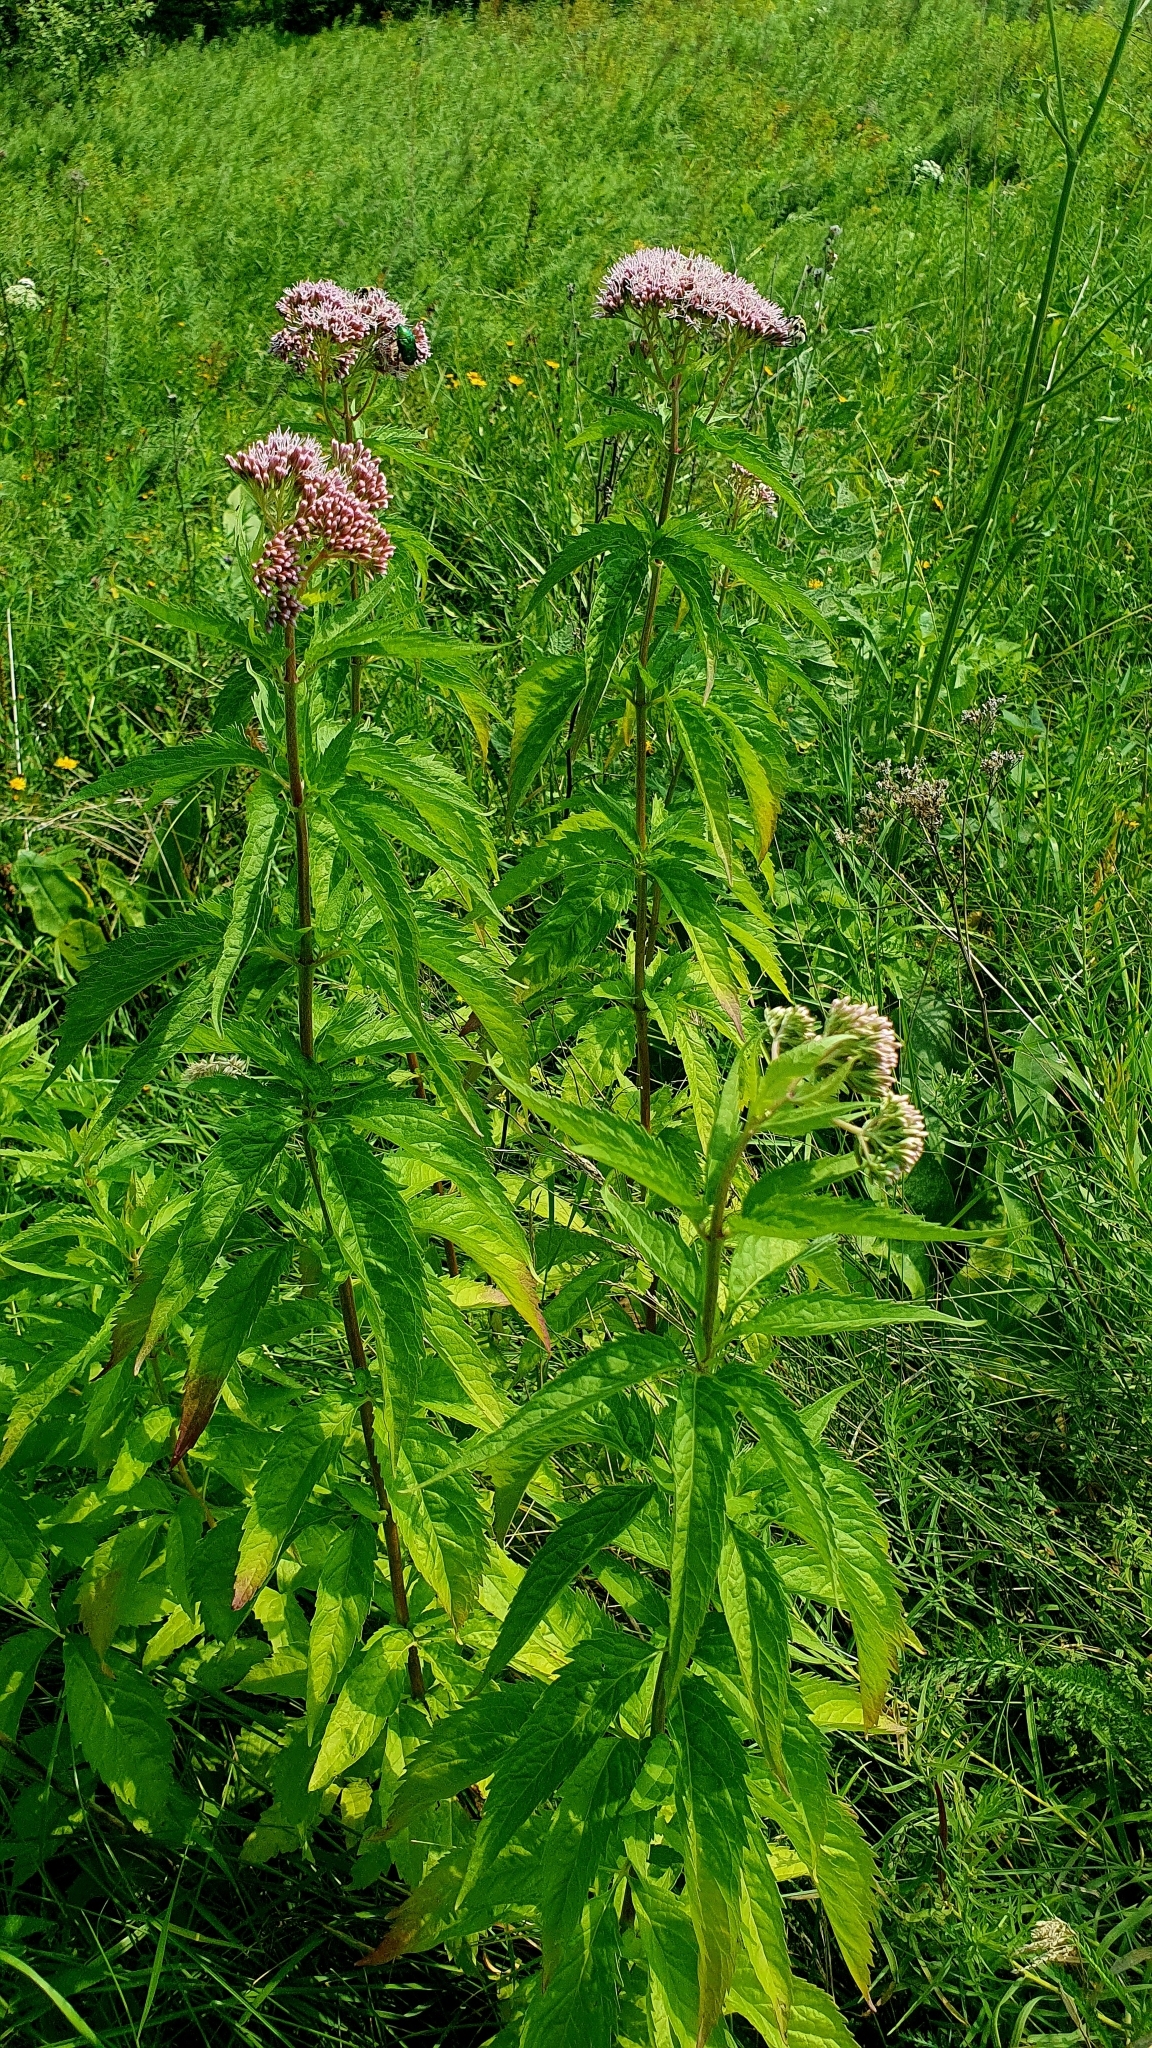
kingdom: Plantae
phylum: Tracheophyta
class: Magnoliopsida
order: Asterales
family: Asteraceae
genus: Eupatorium
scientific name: Eupatorium cannabinum
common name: Hemp-agrimony
